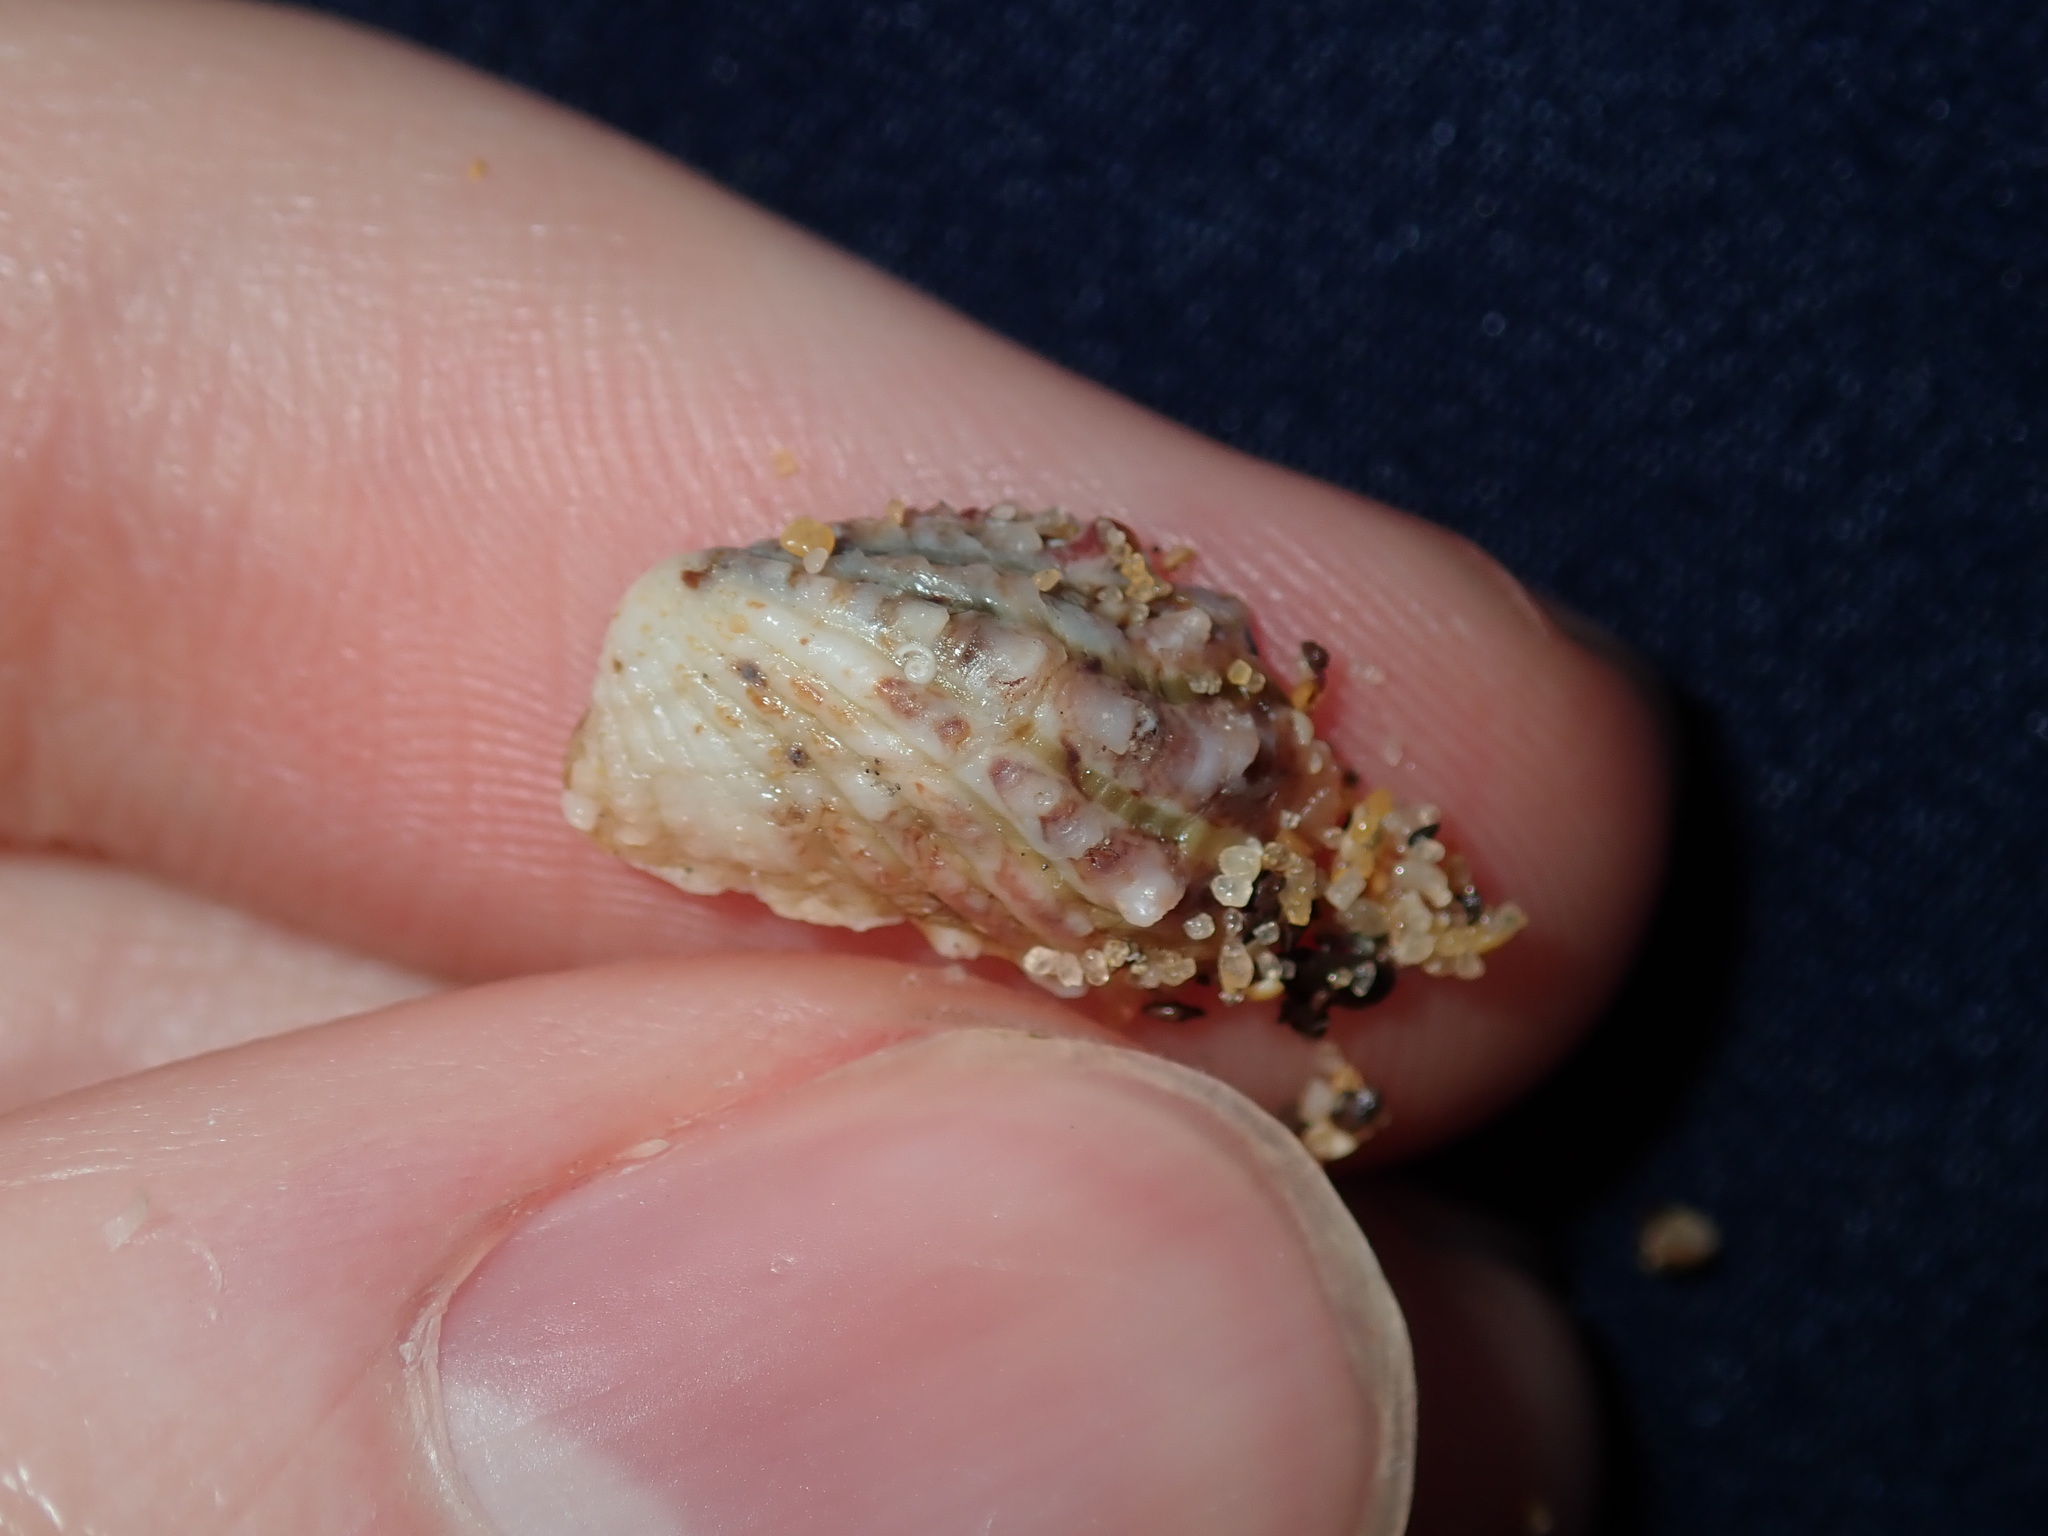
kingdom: Animalia
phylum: Mollusca
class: Bivalvia
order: Carditida
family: Carditidae
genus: Cardita
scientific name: Cardita aviculina
